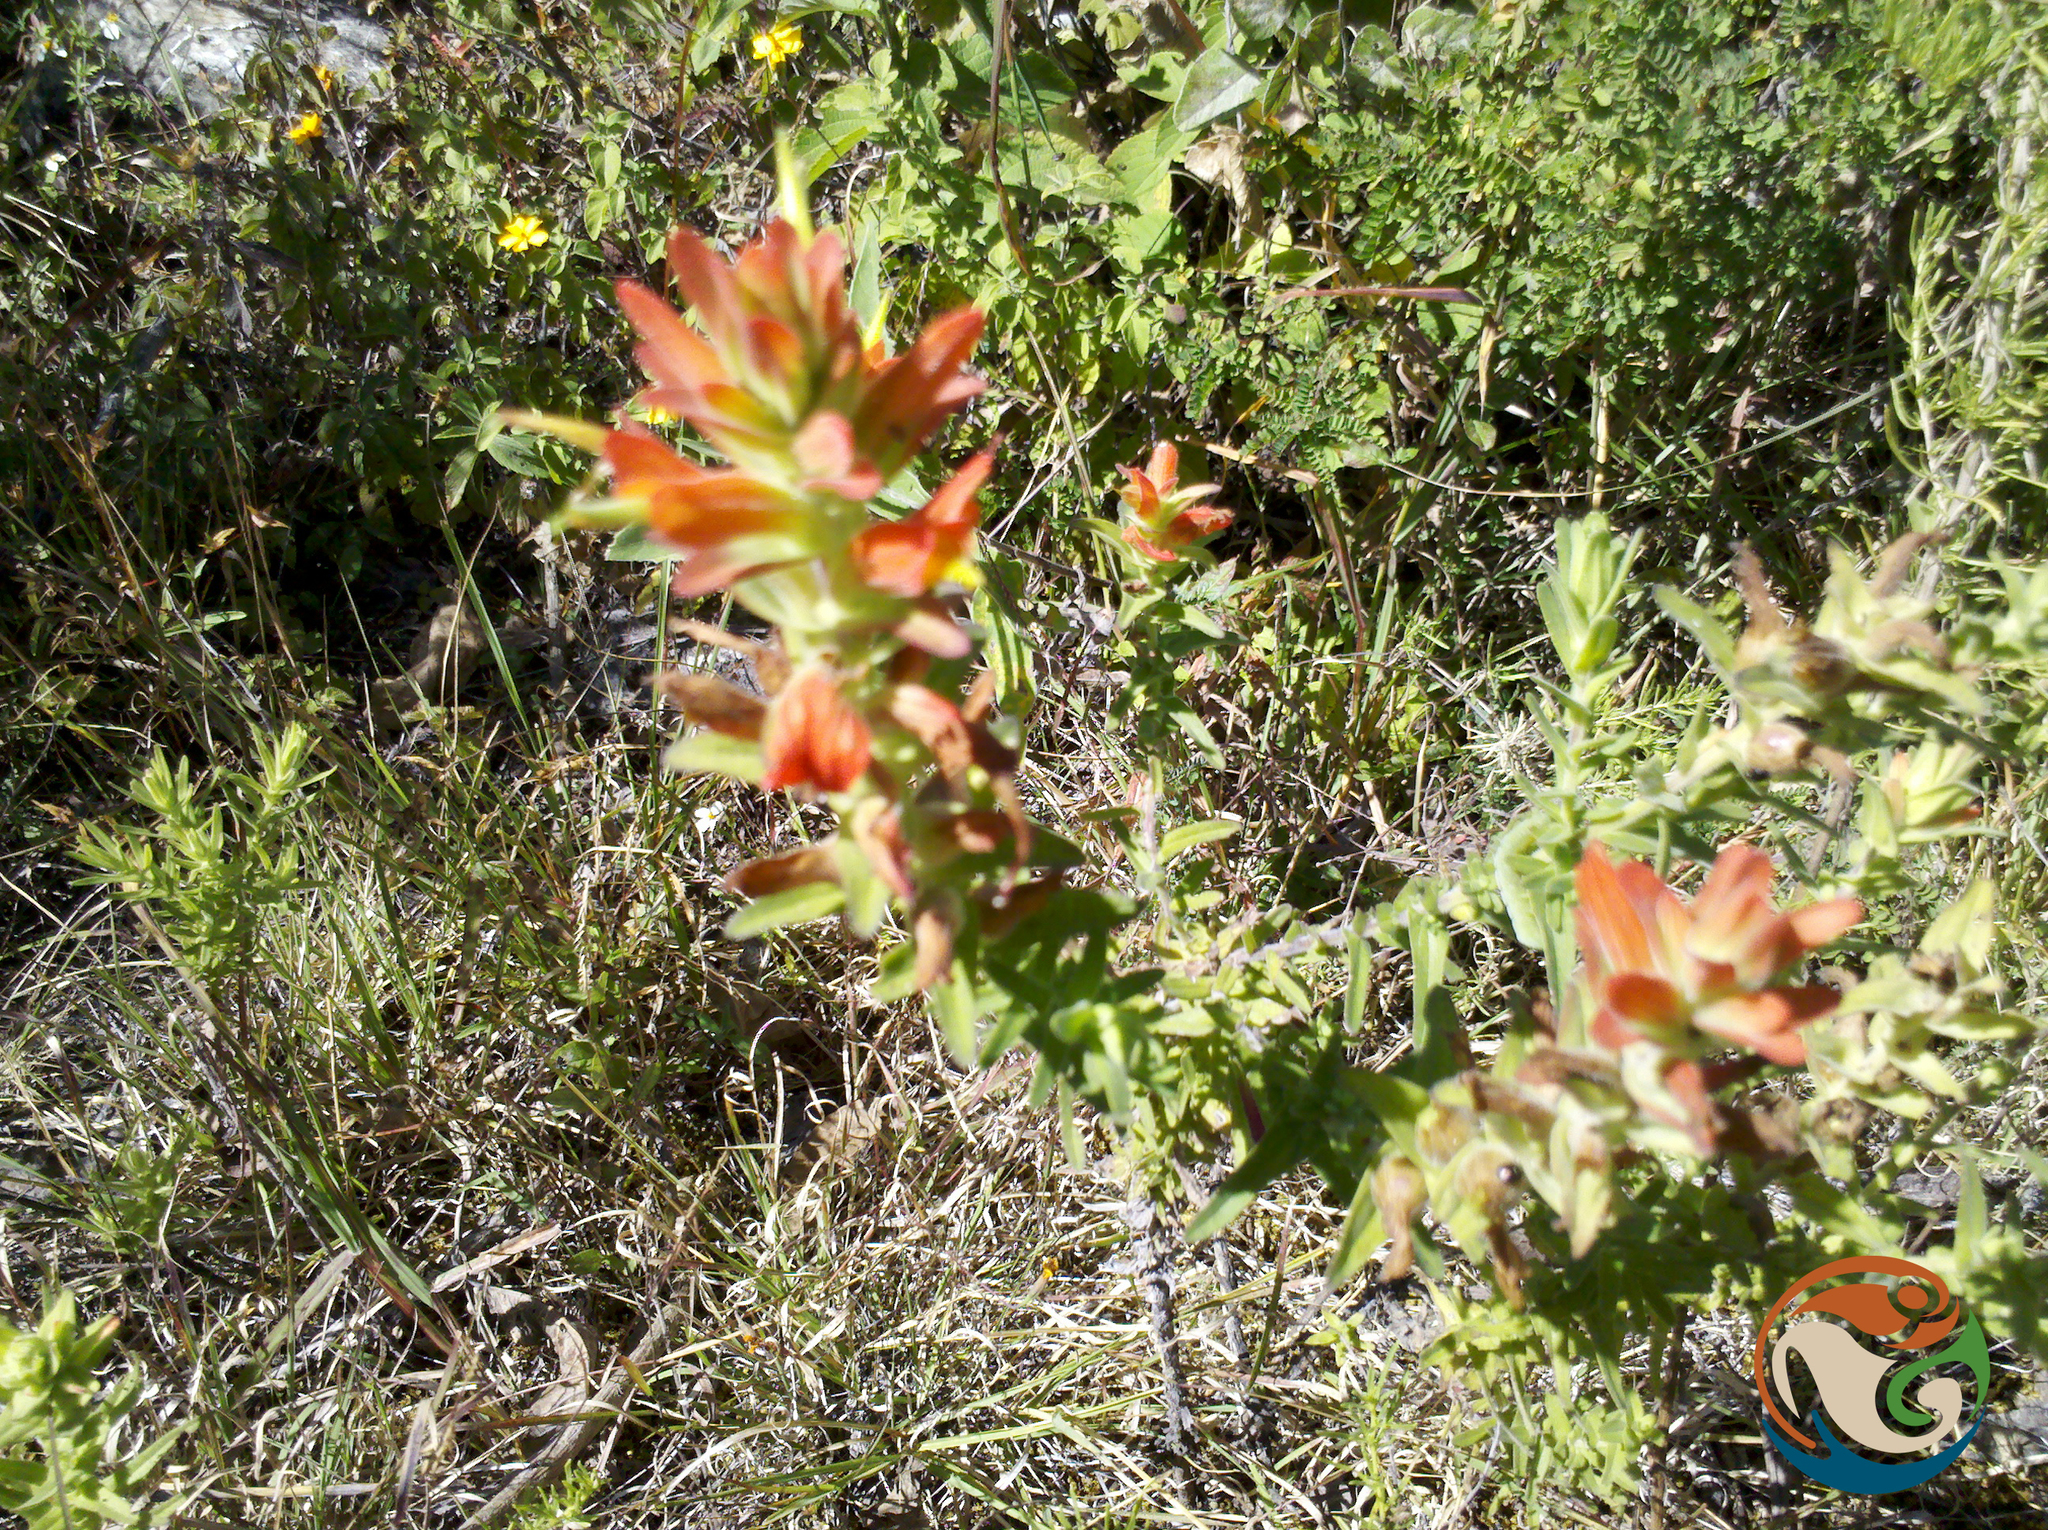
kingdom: Plantae
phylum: Tracheophyta
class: Magnoliopsida
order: Lamiales
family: Orobanchaceae
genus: Castilleja
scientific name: Castilleja auriculata
